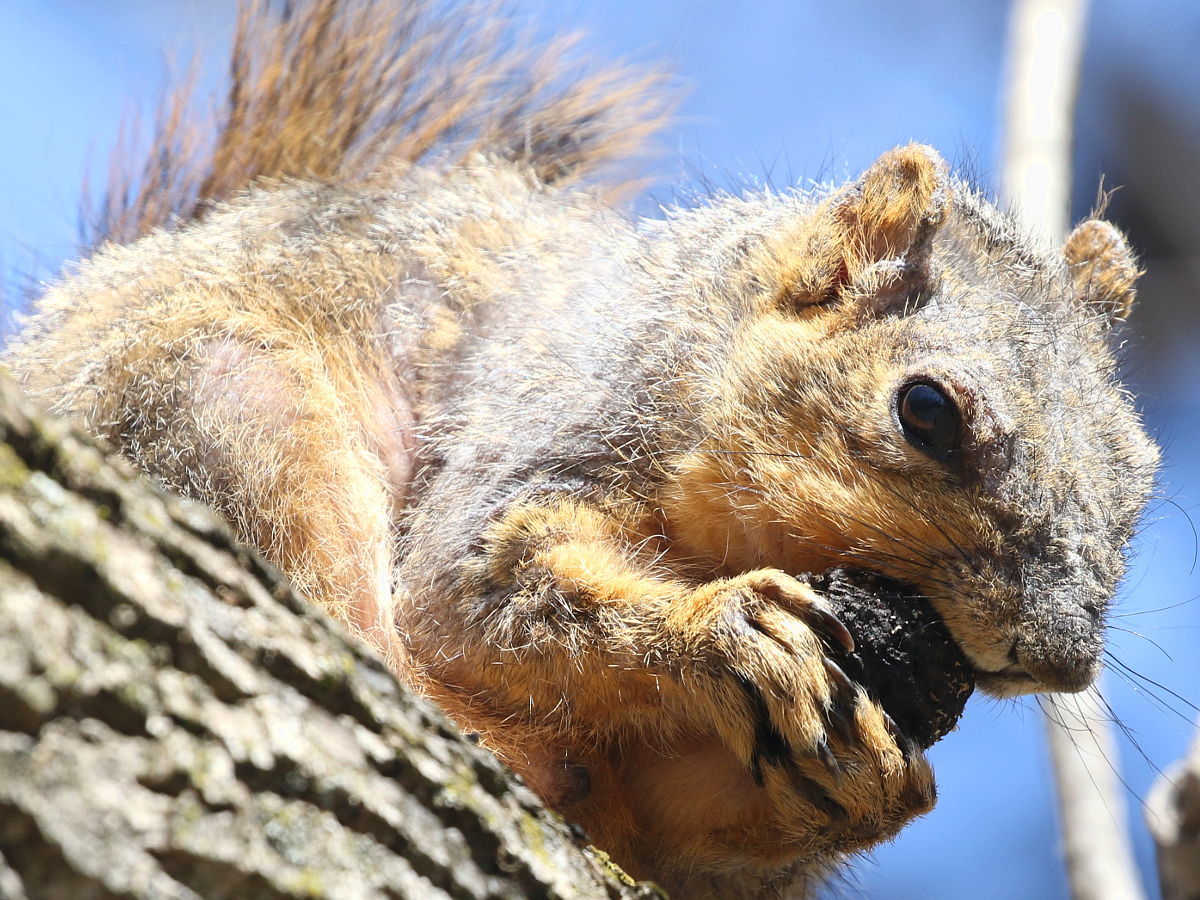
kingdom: Animalia
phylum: Chordata
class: Mammalia
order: Rodentia
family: Sciuridae
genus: Sciurus
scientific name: Sciurus niger
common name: Fox squirrel
